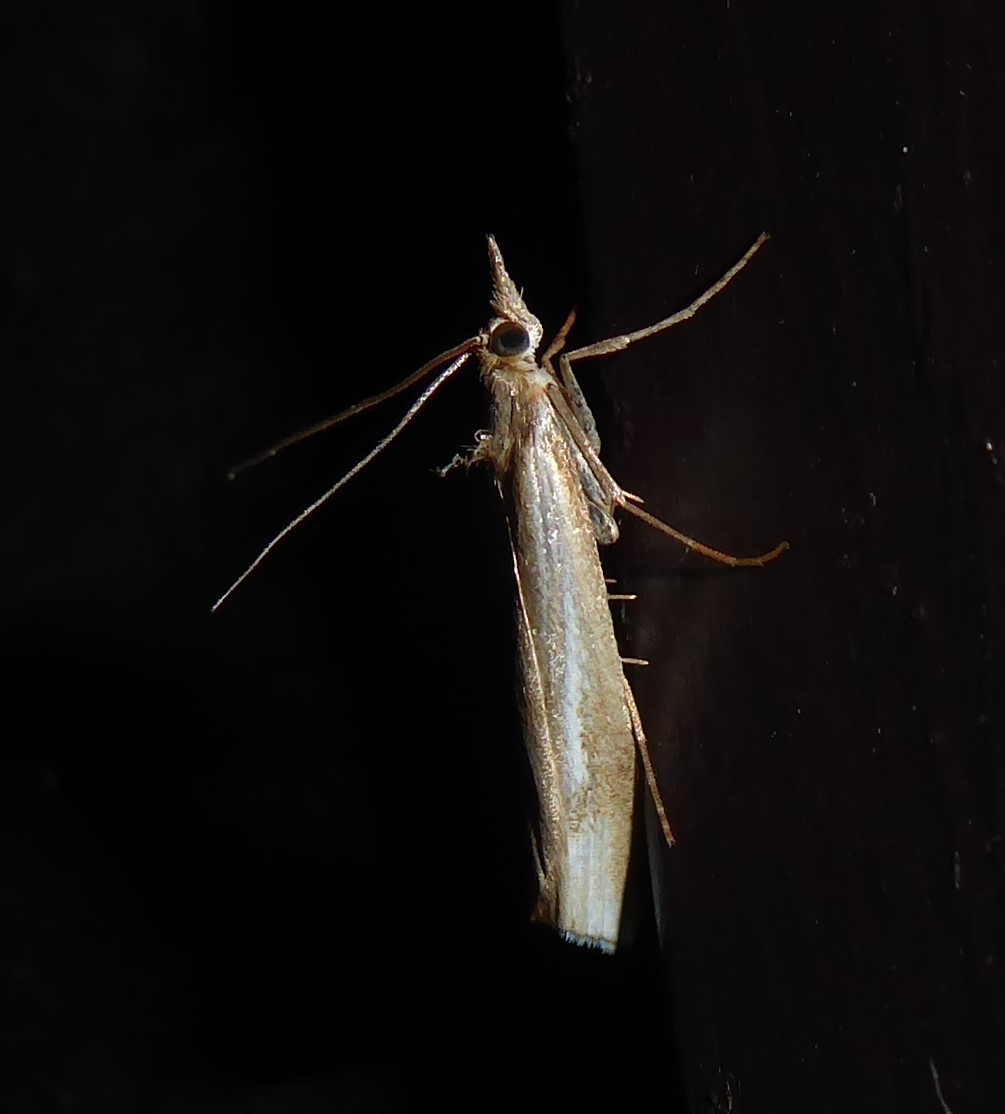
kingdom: Animalia
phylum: Arthropoda
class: Insecta
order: Lepidoptera
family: Crambidae
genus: Orocrambus
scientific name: Orocrambus vulgaris
